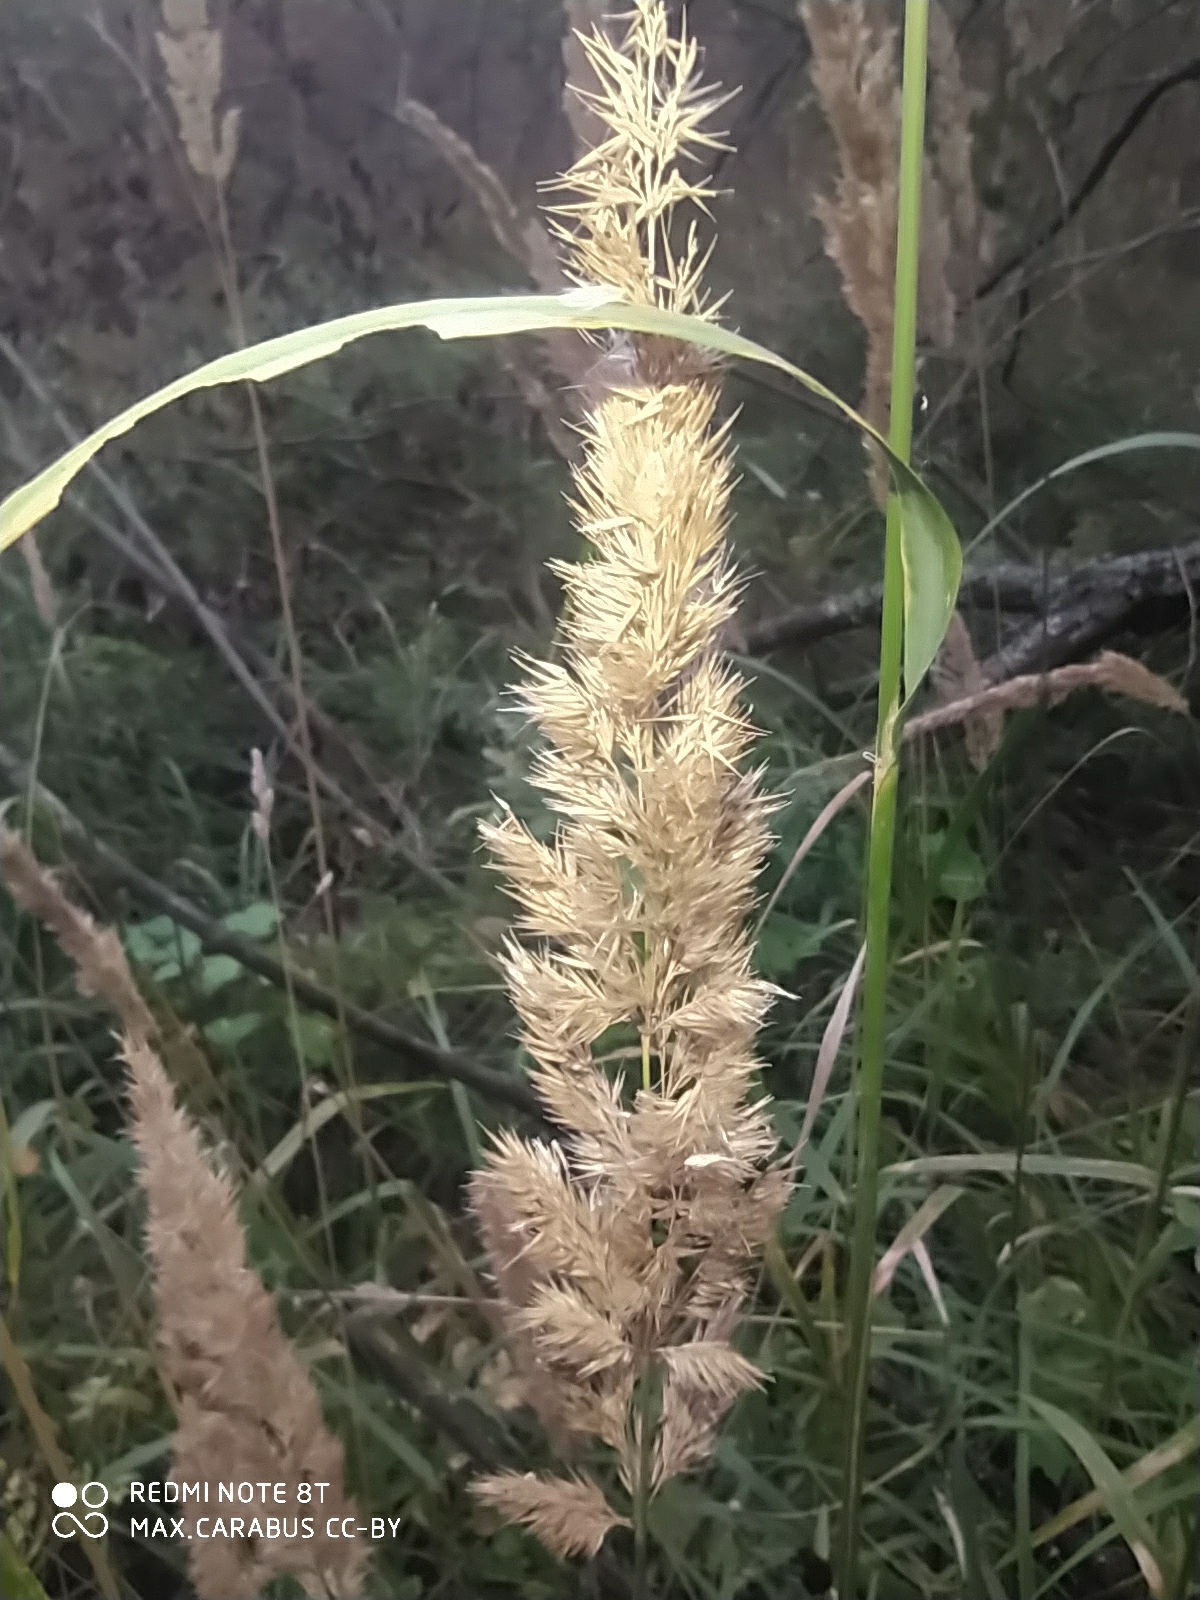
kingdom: Plantae
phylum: Tracheophyta
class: Liliopsida
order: Poales
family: Poaceae
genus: Calamagrostis
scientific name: Calamagrostis epigejos
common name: Wood small-reed
